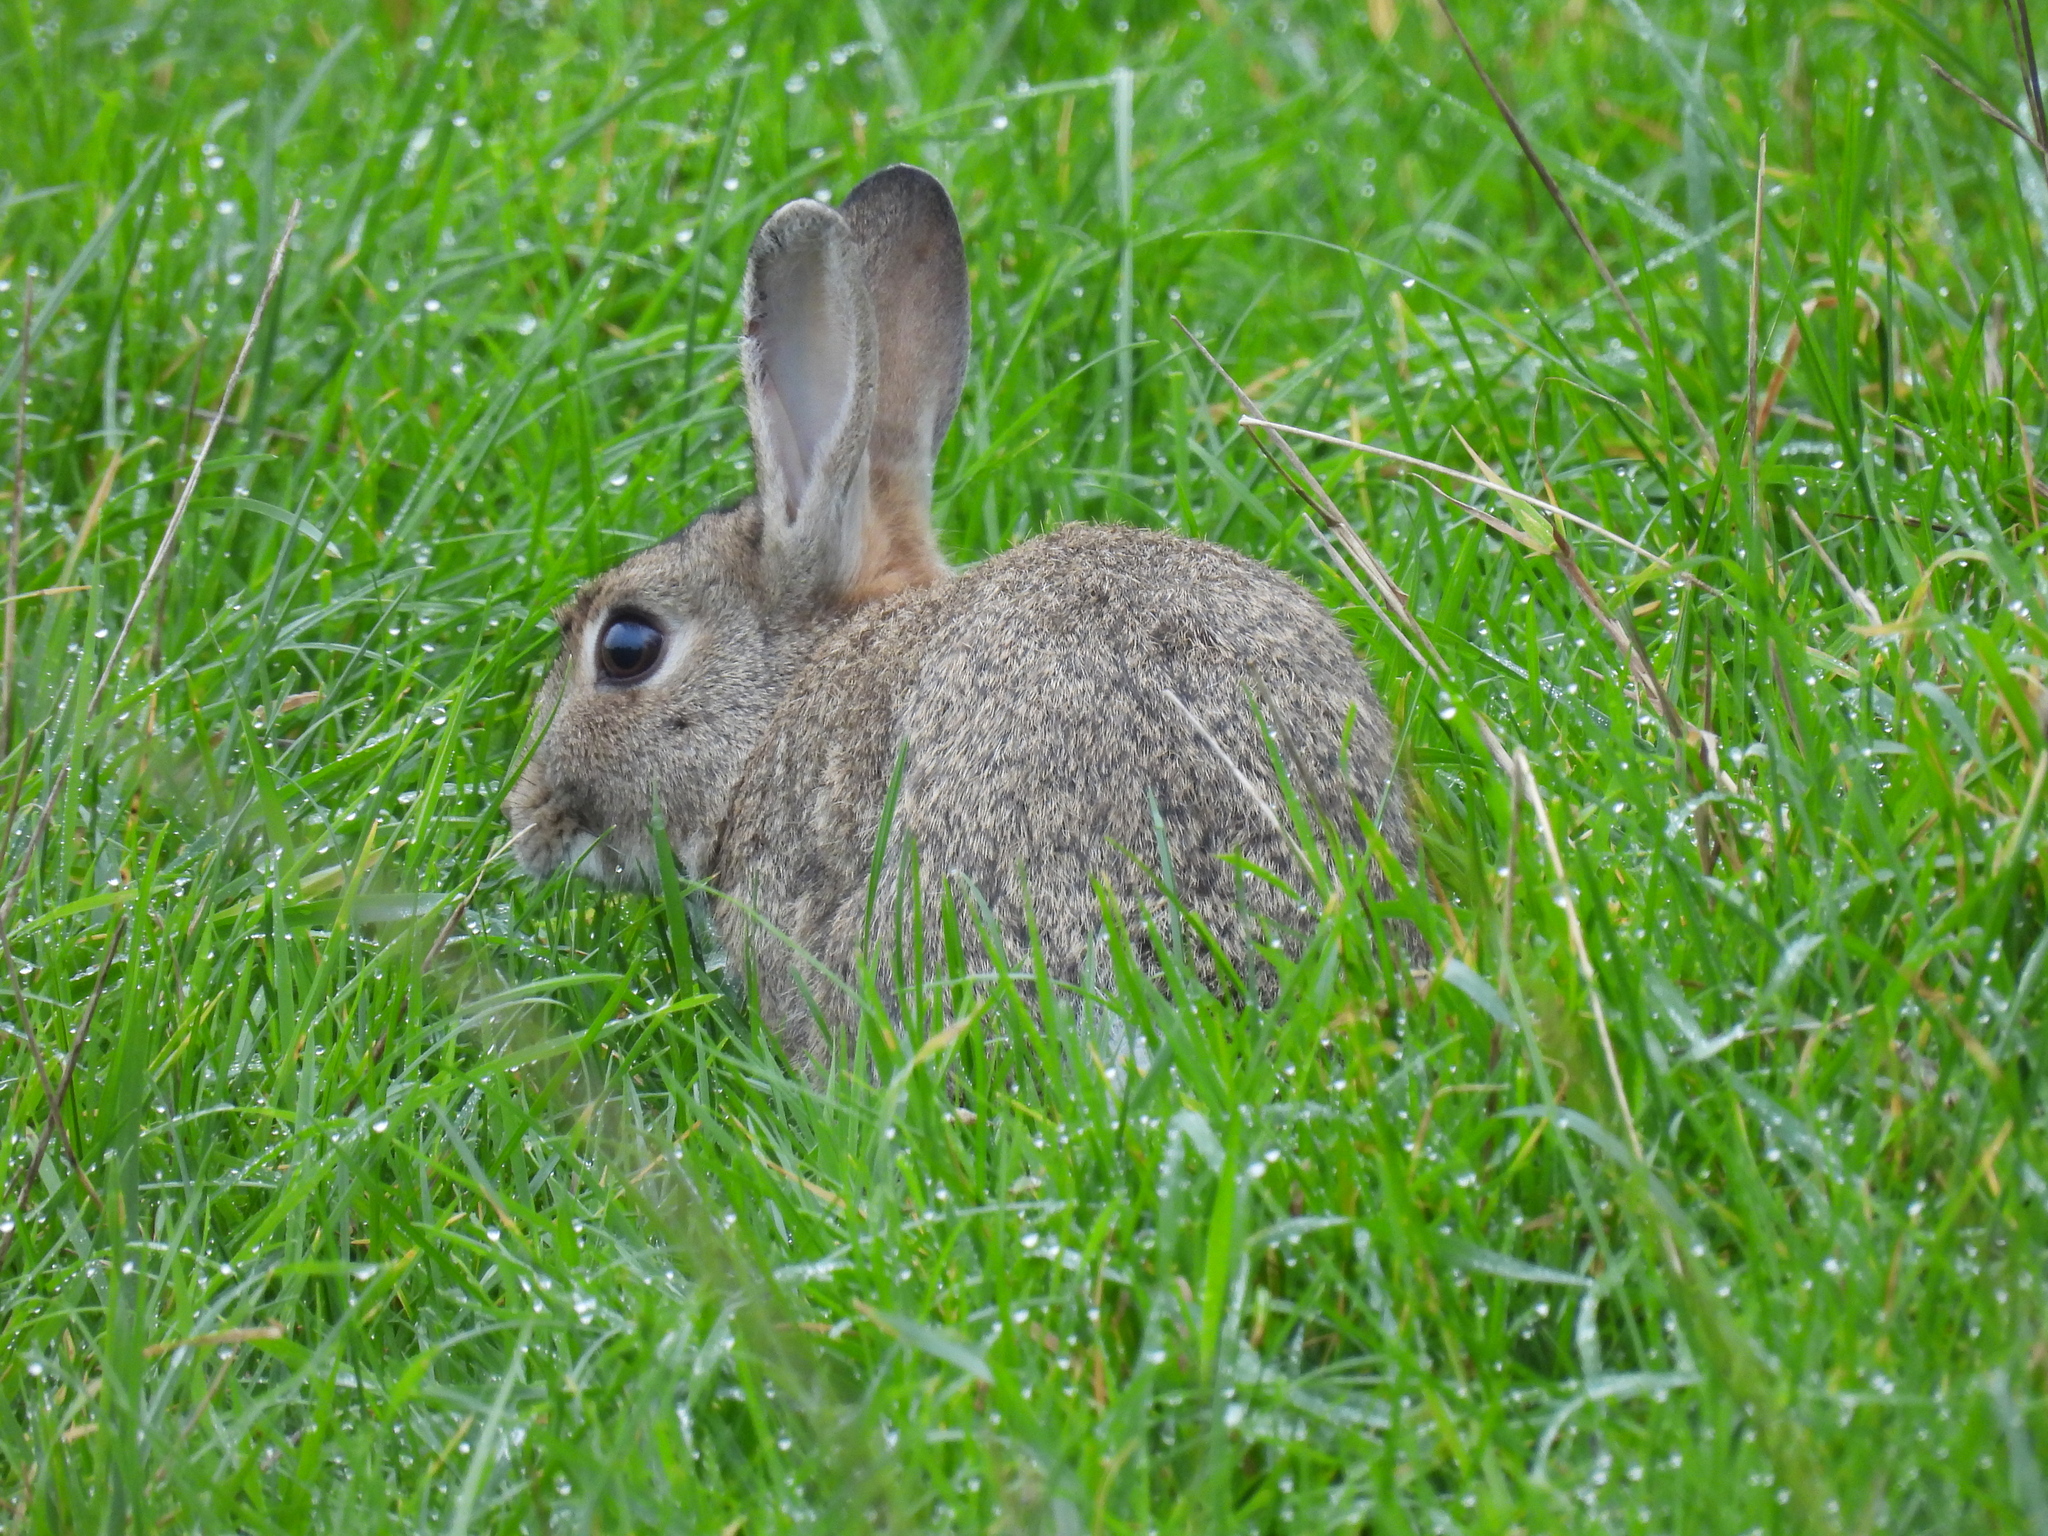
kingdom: Animalia
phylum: Chordata
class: Mammalia
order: Lagomorpha
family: Leporidae
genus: Oryctolagus
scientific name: Oryctolagus cuniculus
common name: European rabbit
